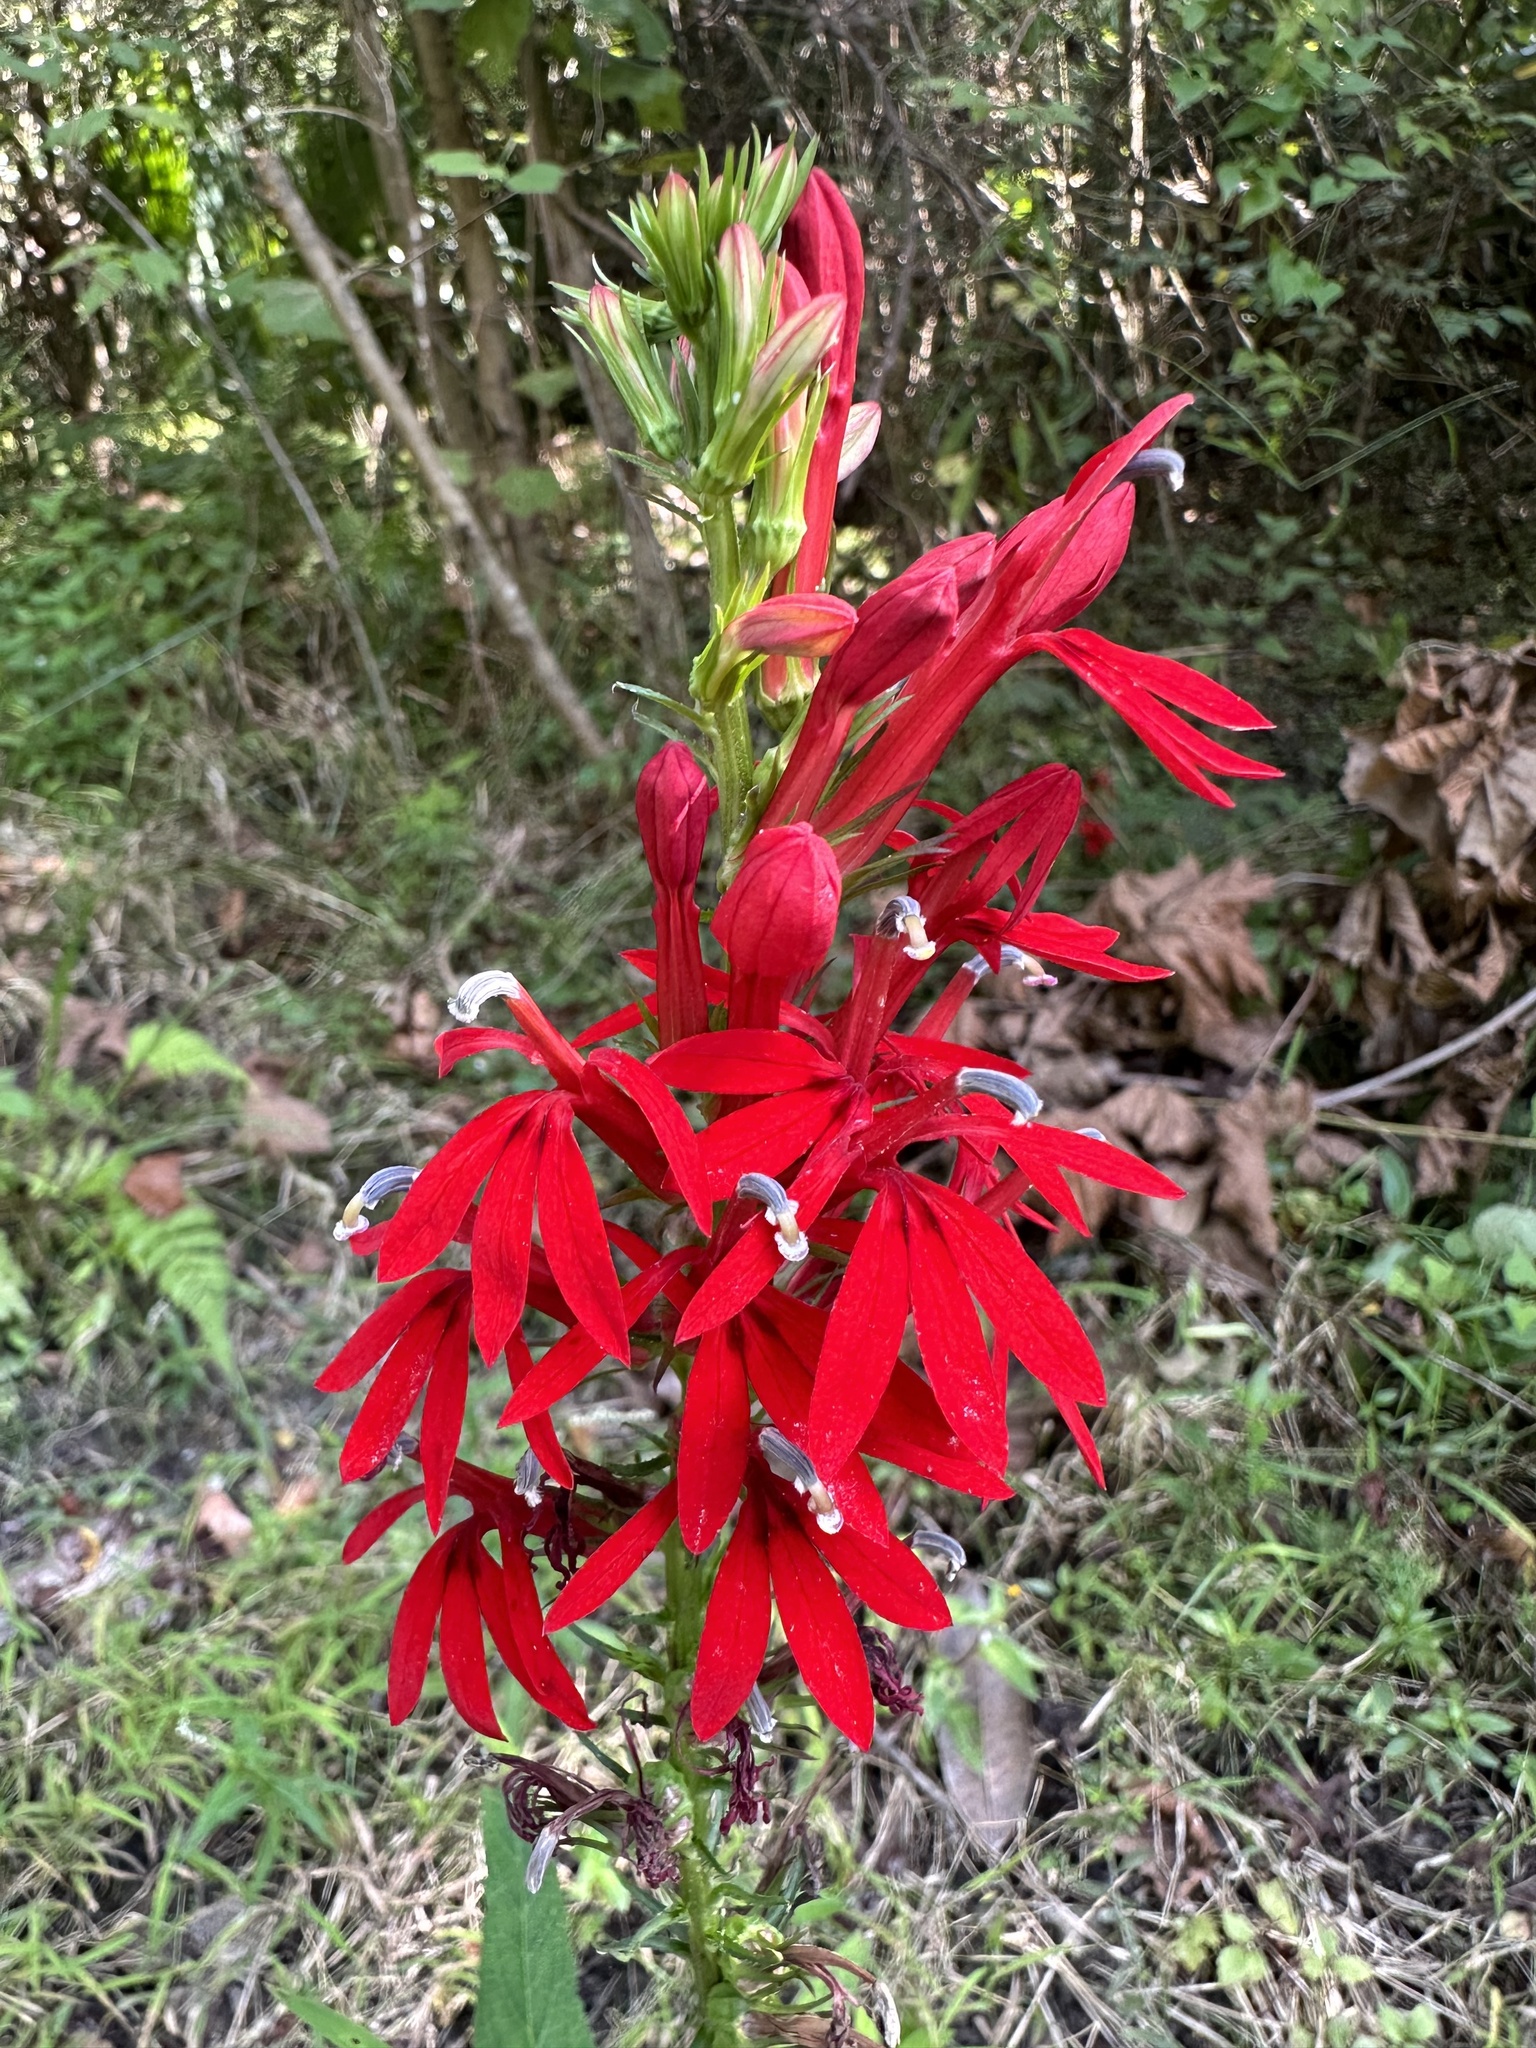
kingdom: Plantae
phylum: Tracheophyta
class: Magnoliopsida
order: Asterales
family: Campanulaceae
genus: Lobelia
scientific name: Lobelia cardinalis
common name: Cardinal flower
